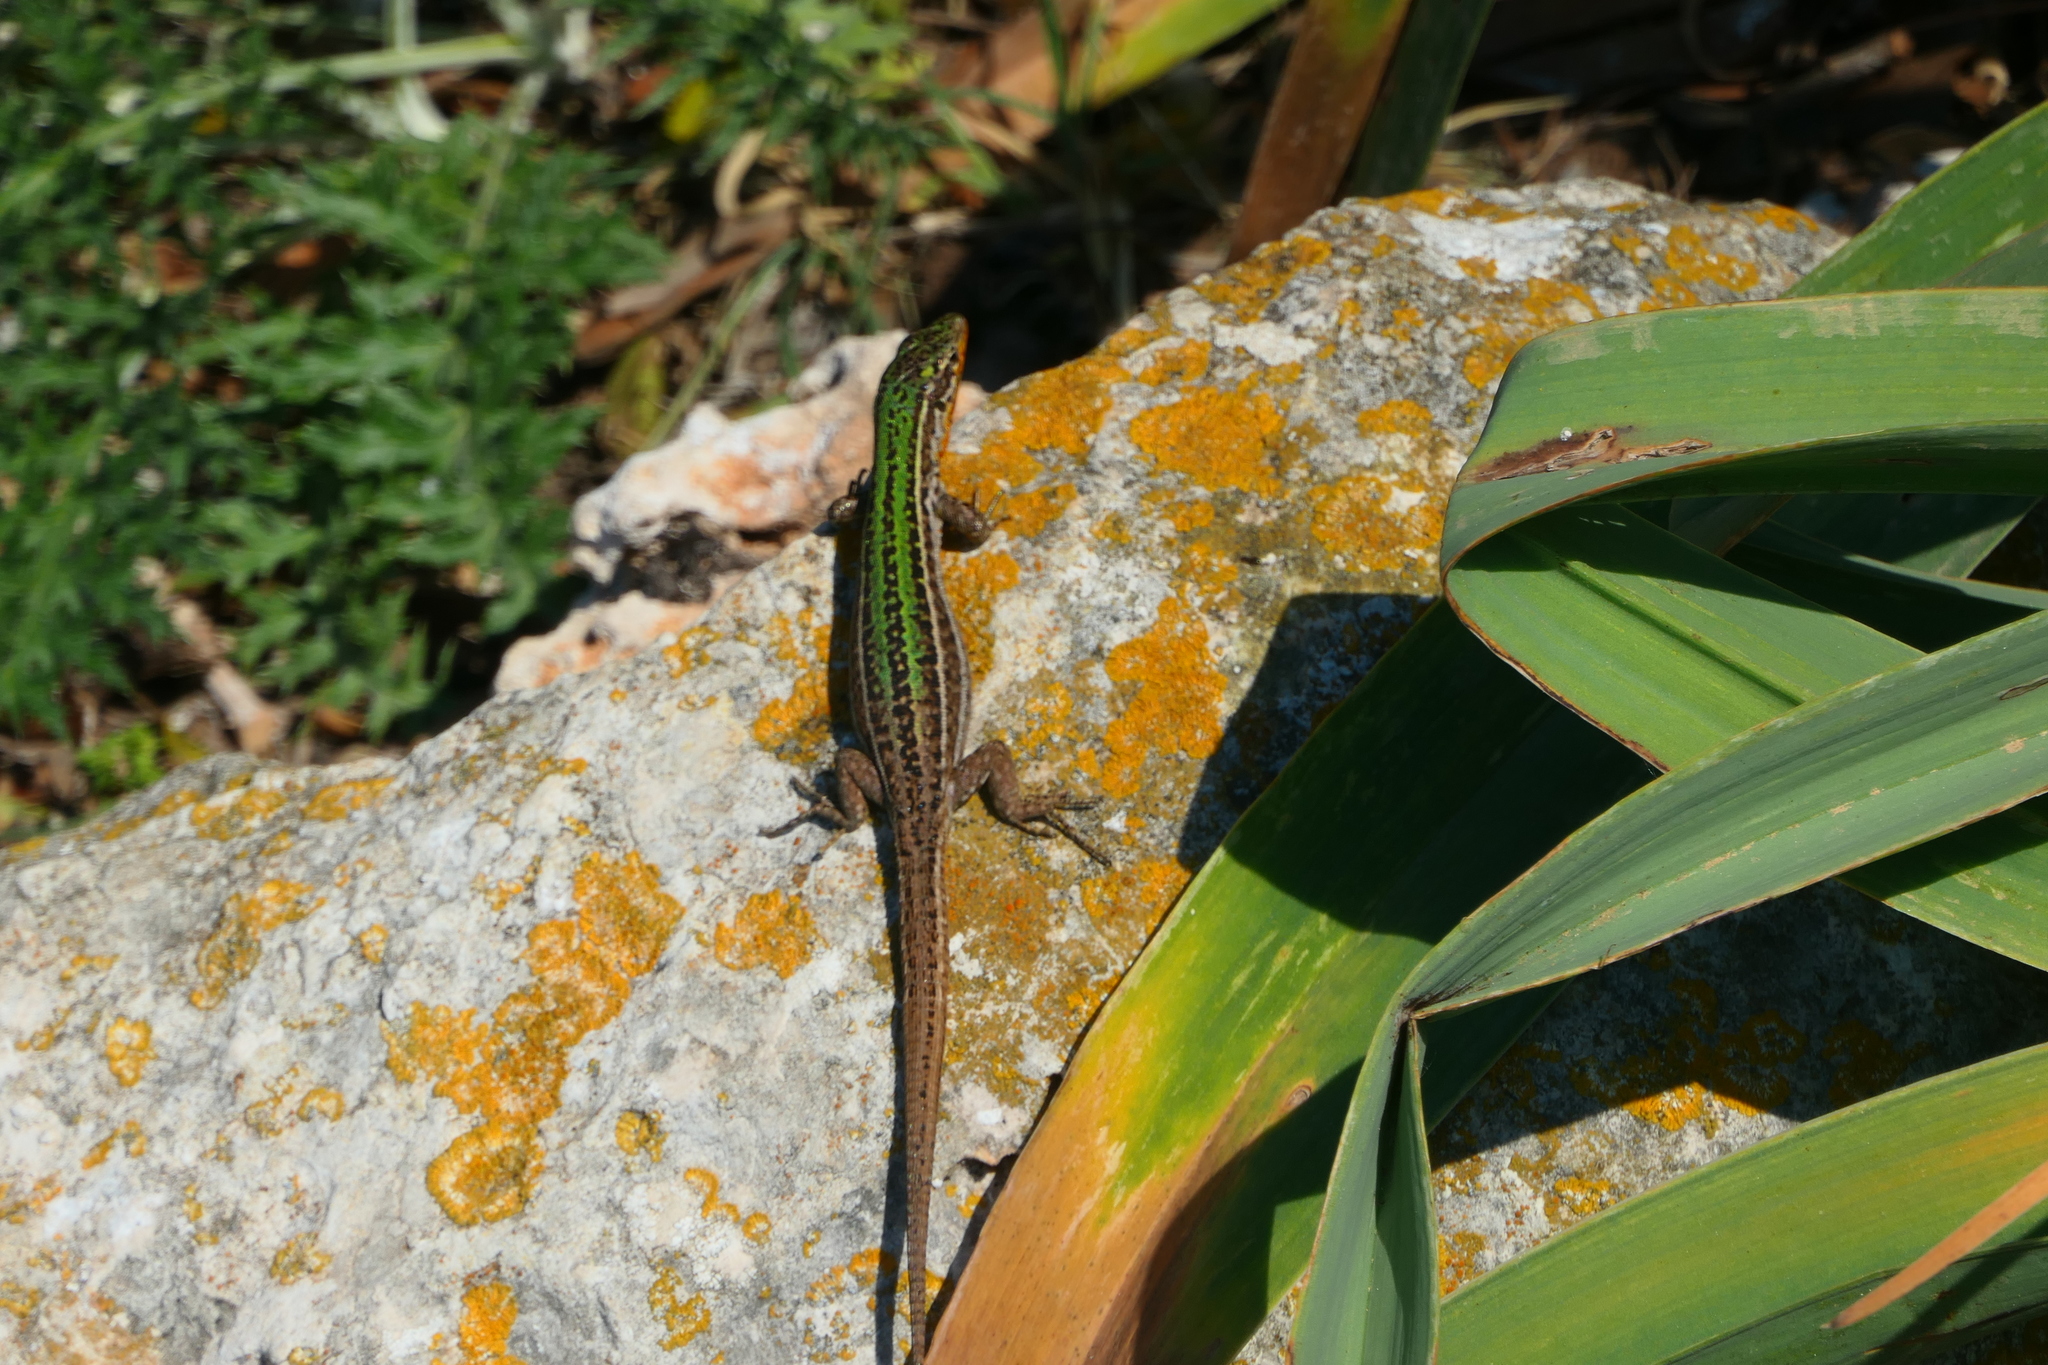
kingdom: Animalia
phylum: Chordata
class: Squamata
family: Lacertidae
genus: Podarcis
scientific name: Podarcis melisellensis
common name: Dalmatian wall lizard
